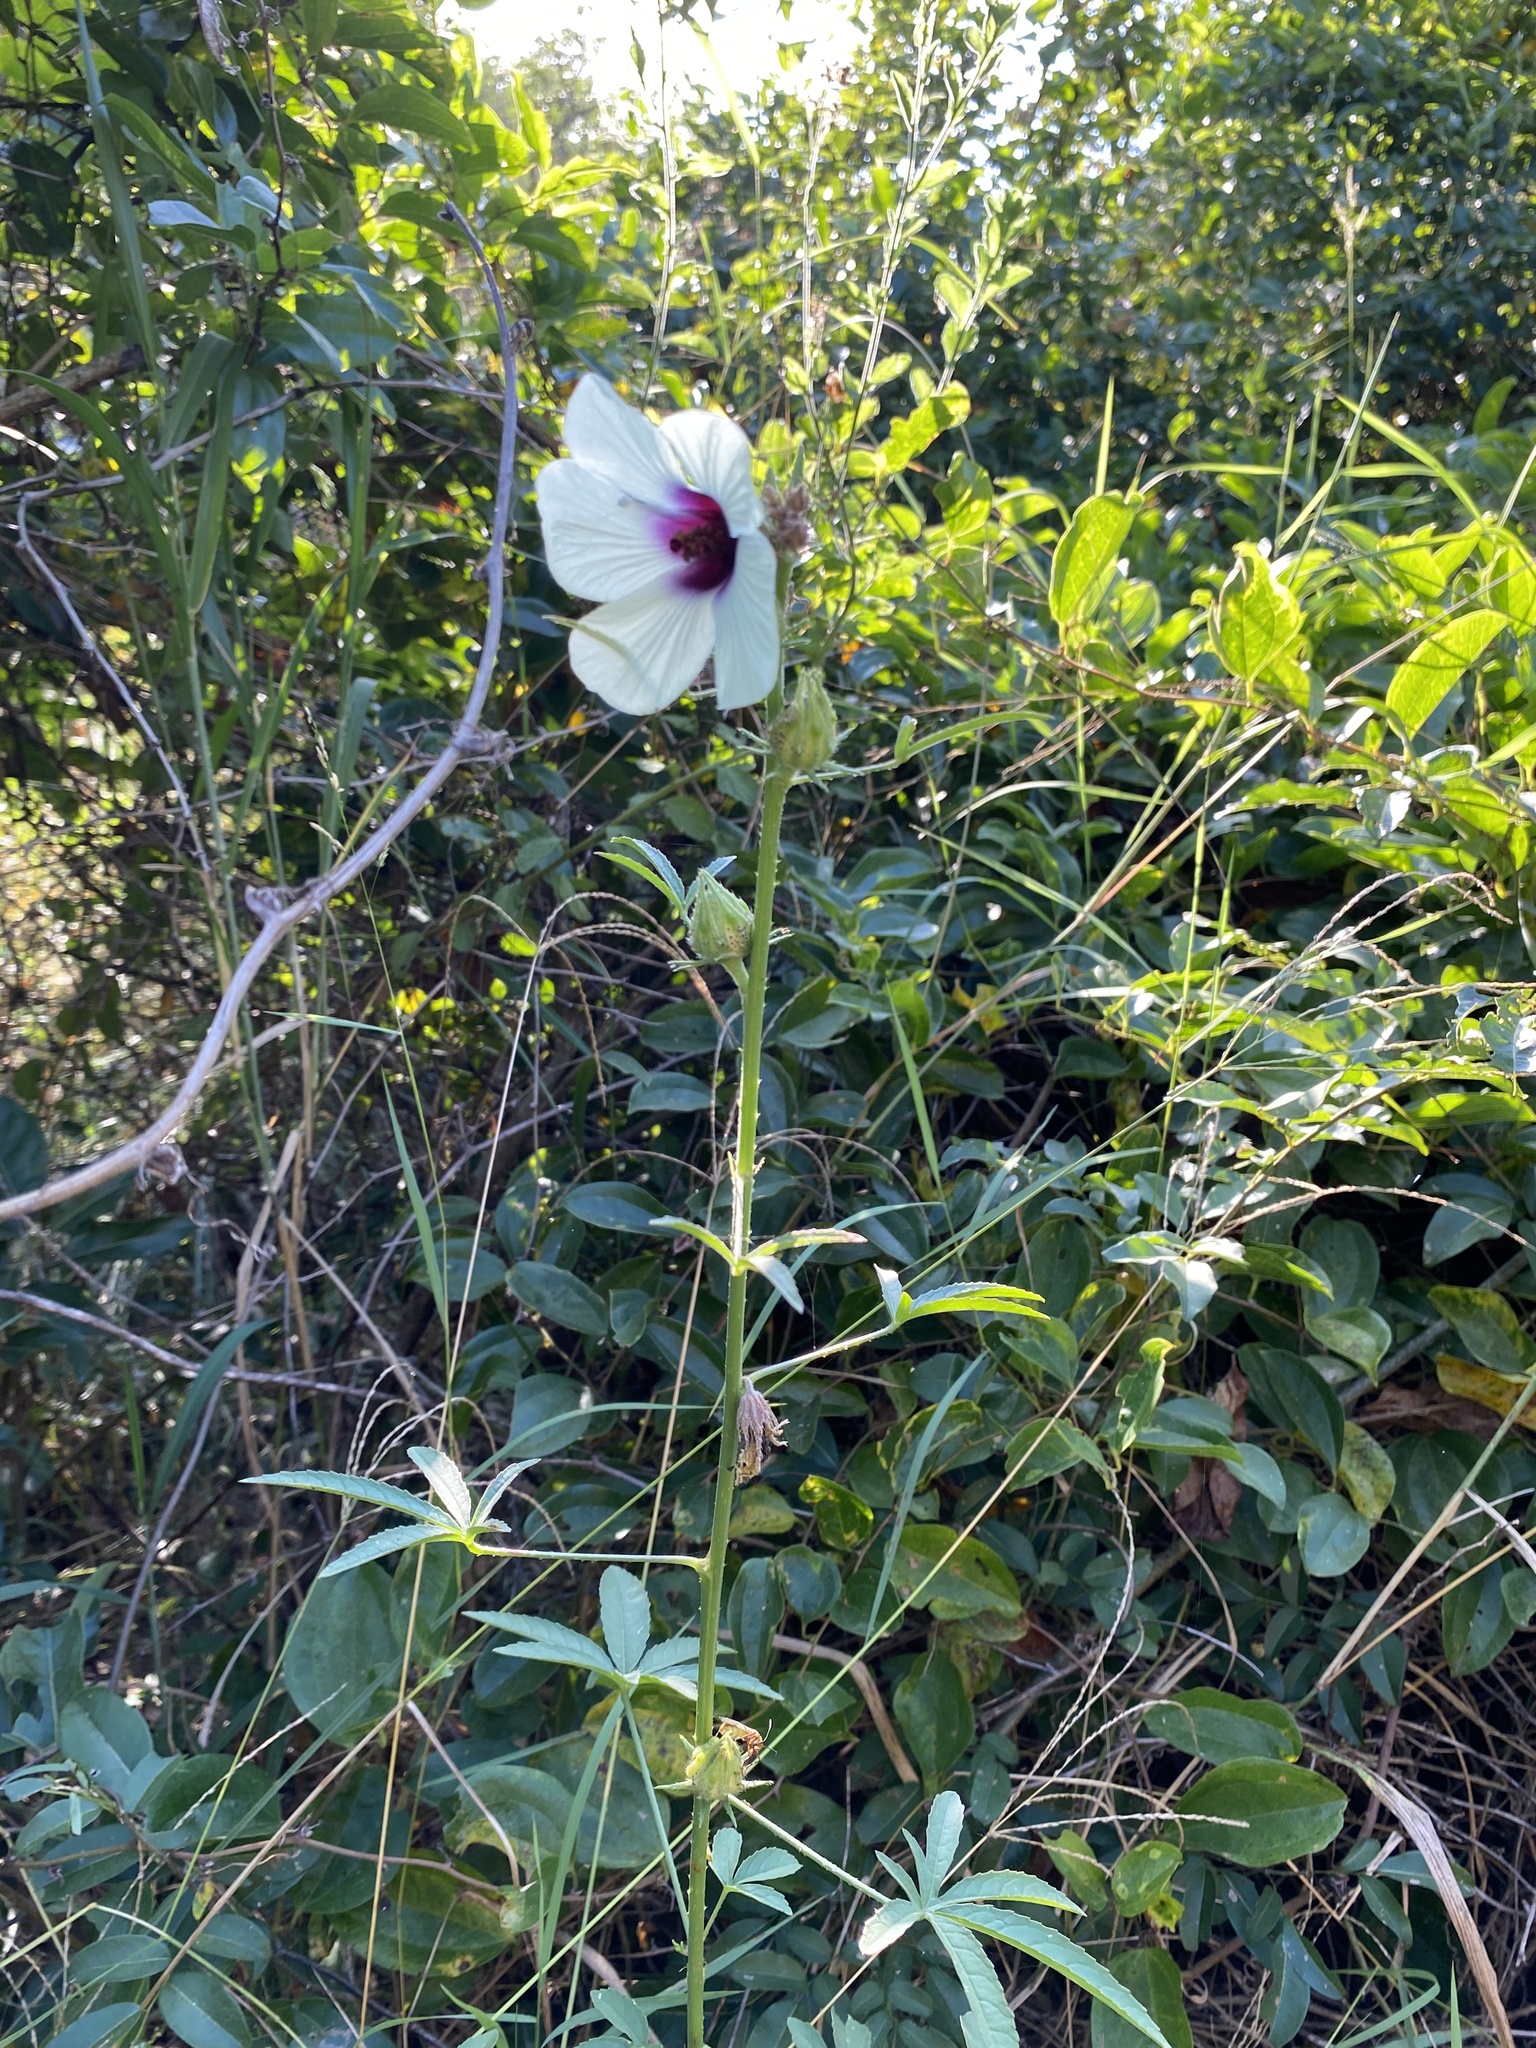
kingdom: Plantae
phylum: Tracheophyta
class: Magnoliopsida
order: Malvales
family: Malvaceae
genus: Hibiscus
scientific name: Hibiscus cannabinus
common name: Brown indianhemp
